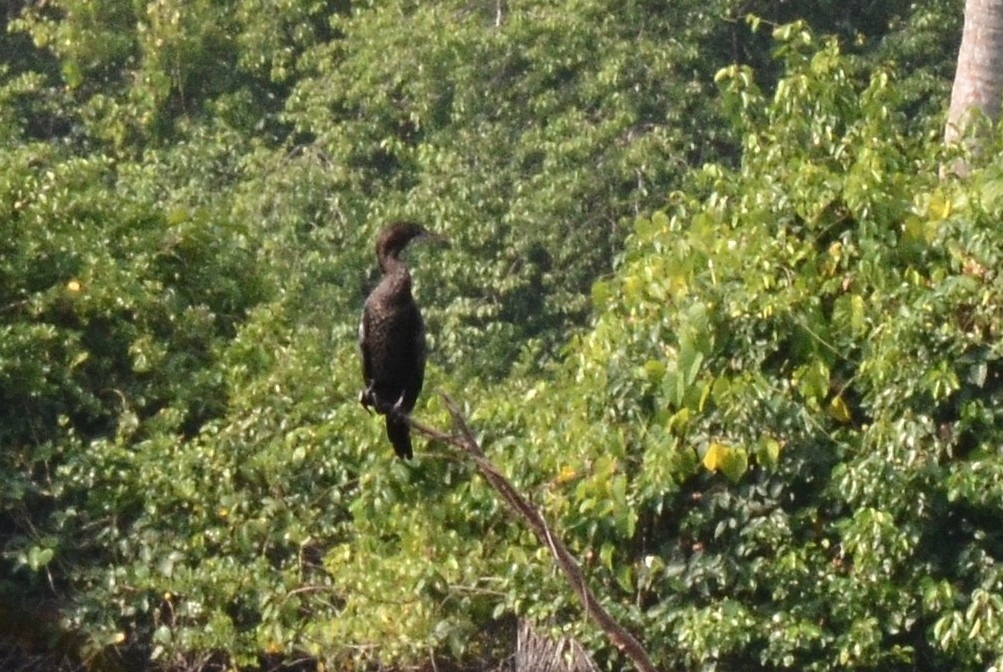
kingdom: Animalia
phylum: Chordata
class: Aves
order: Suliformes
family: Phalacrocoracidae
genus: Microcarbo
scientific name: Microcarbo niger
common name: Little cormorant
